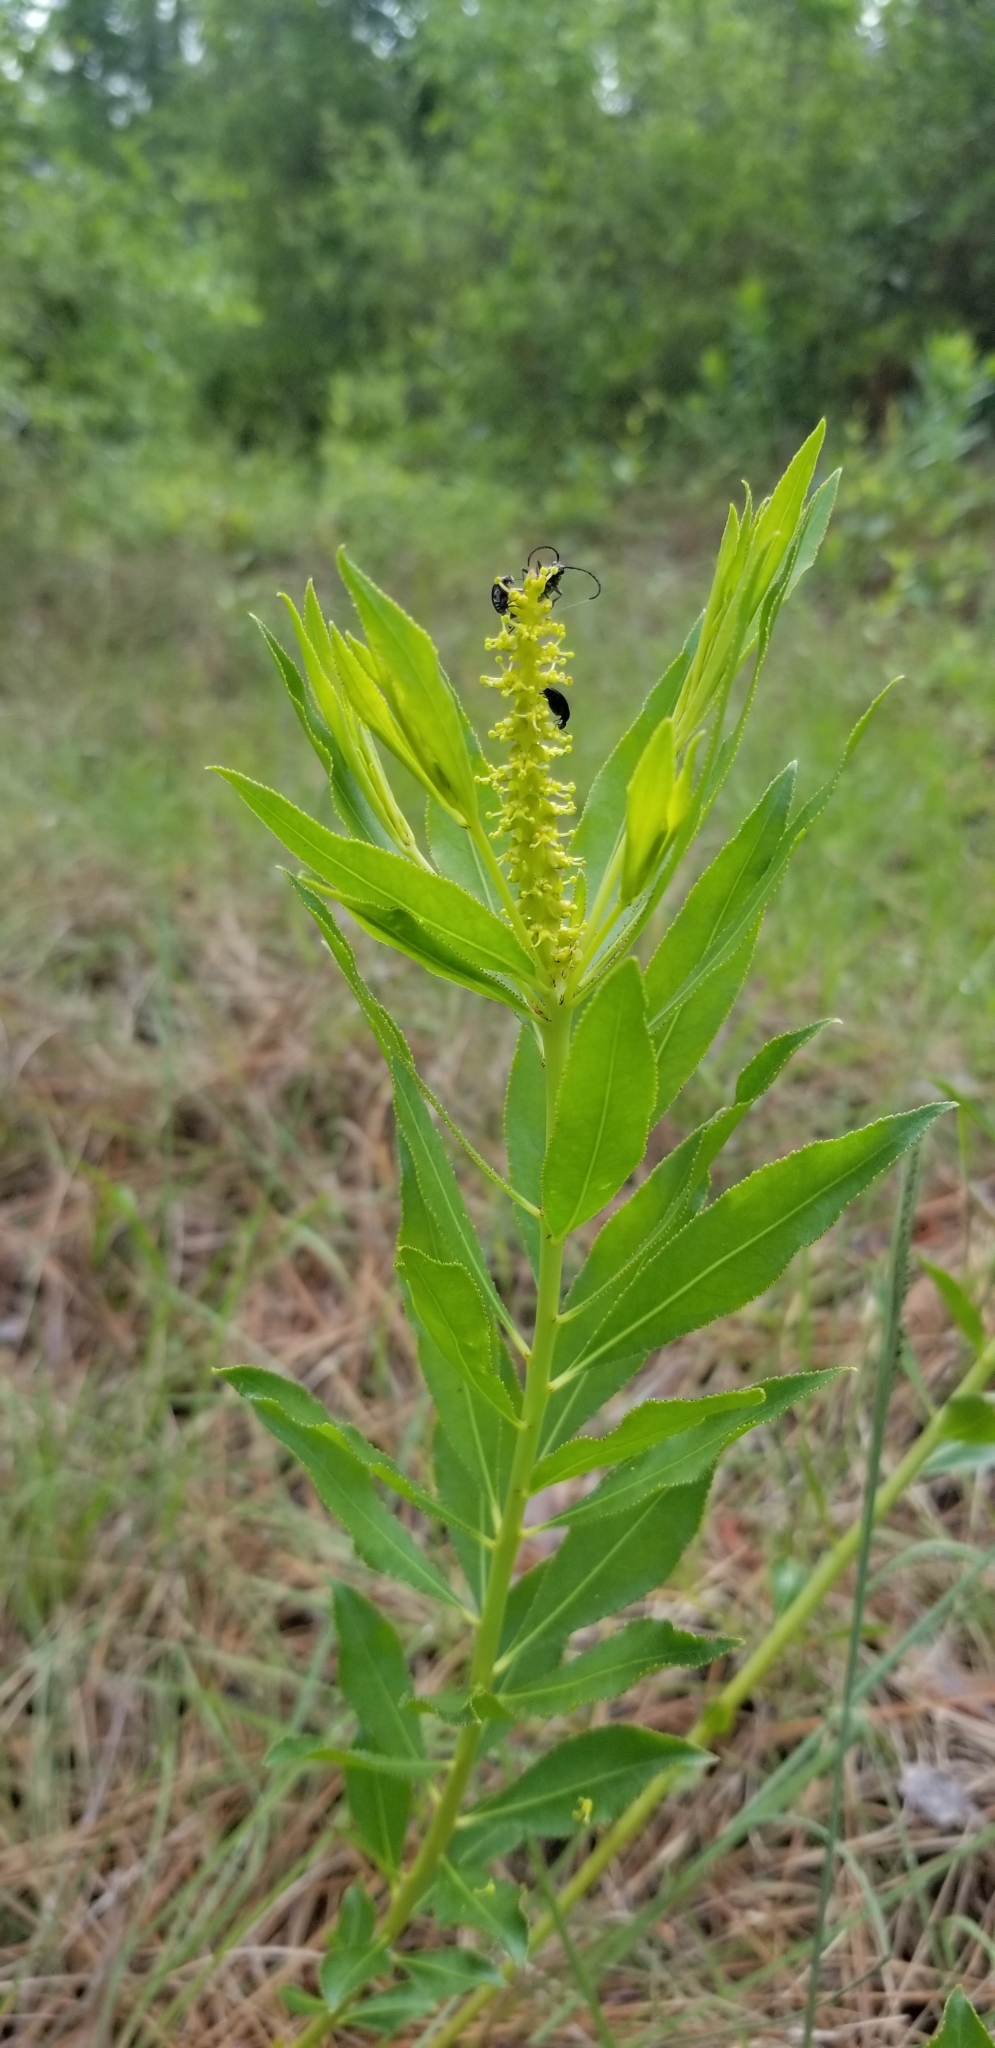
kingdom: Plantae
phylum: Tracheophyta
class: Magnoliopsida
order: Malpighiales
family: Euphorbiaceae
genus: Stillingia
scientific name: Stillingia sylvatica
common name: Queen's-delight
